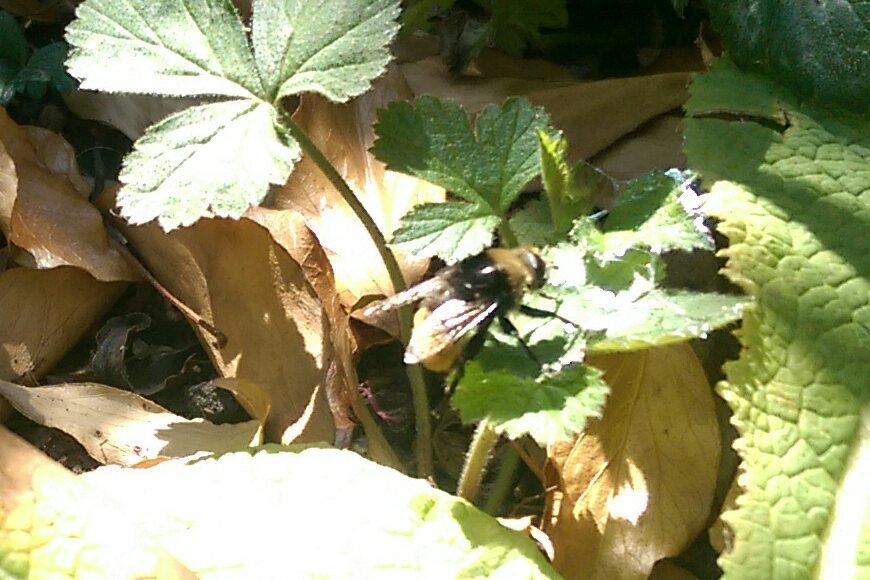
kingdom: Animalia
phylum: Arthropoda
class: Insecta
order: Diptera
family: Syrphidae
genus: Merodon
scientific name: Merodon equestris
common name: Greater bulb-fly
